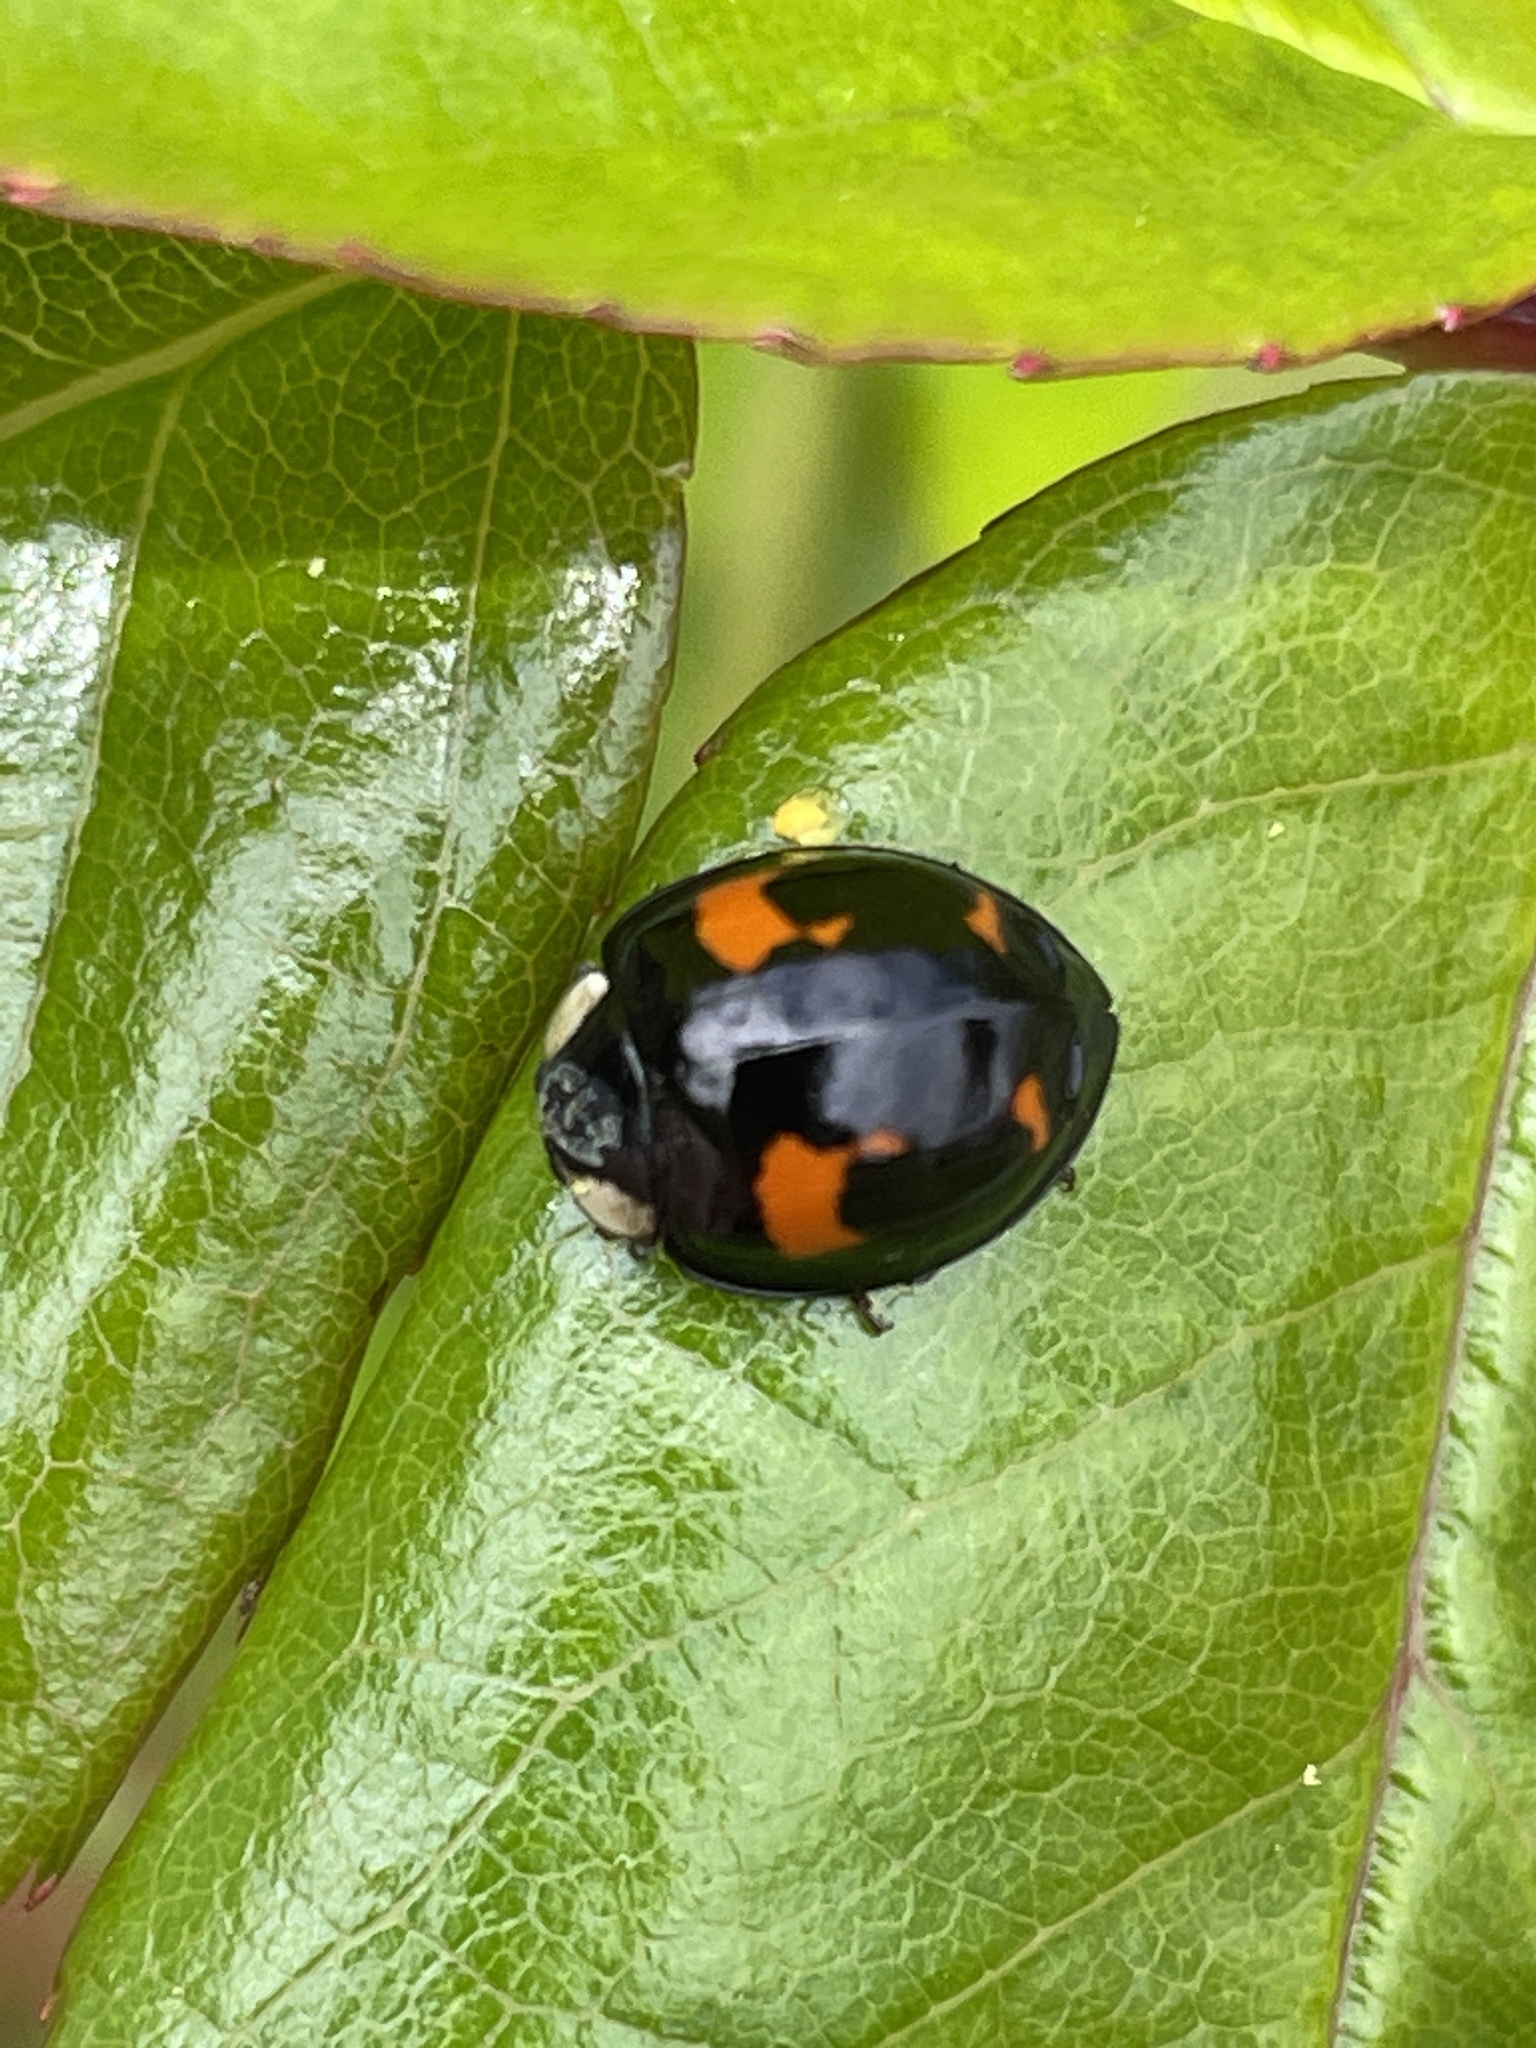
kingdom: Animalia
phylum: Arthropoda
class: Insecta
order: Coleoptera
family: Coccinellidae
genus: Harmonia
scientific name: Harmonia axyridis
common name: Harlequin ladybird
